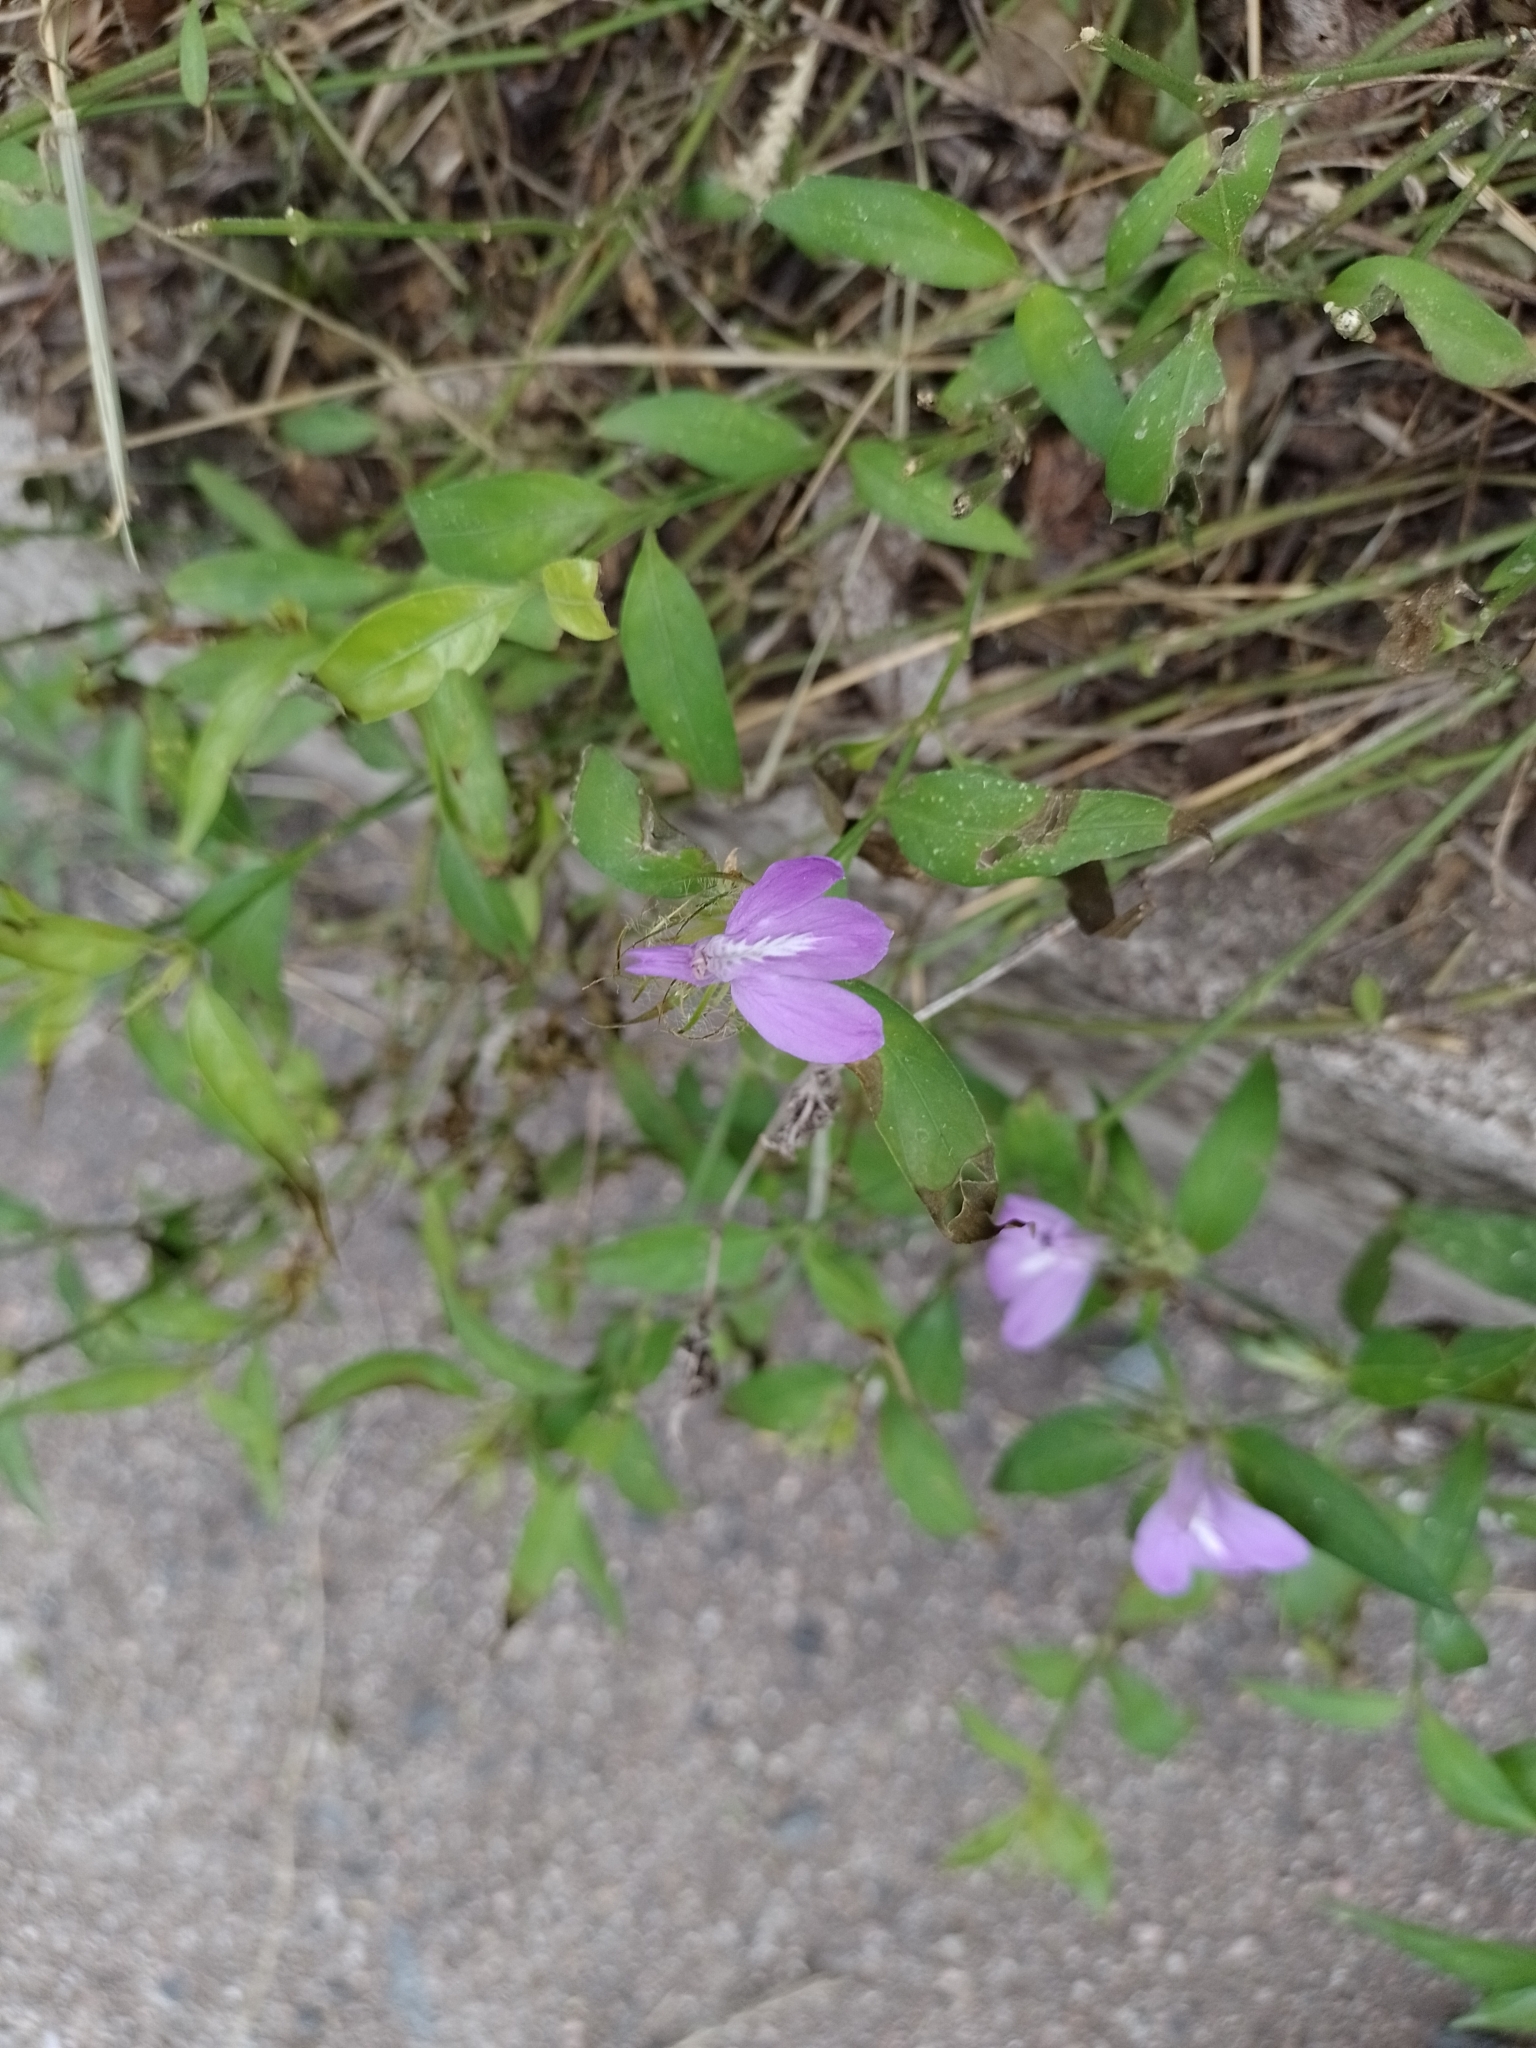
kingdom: Plantae
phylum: Tracheophyta
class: Magnoliopsida
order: Lamiales
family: Acanthaceae
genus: Justicia
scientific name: Justicia squarrosa
